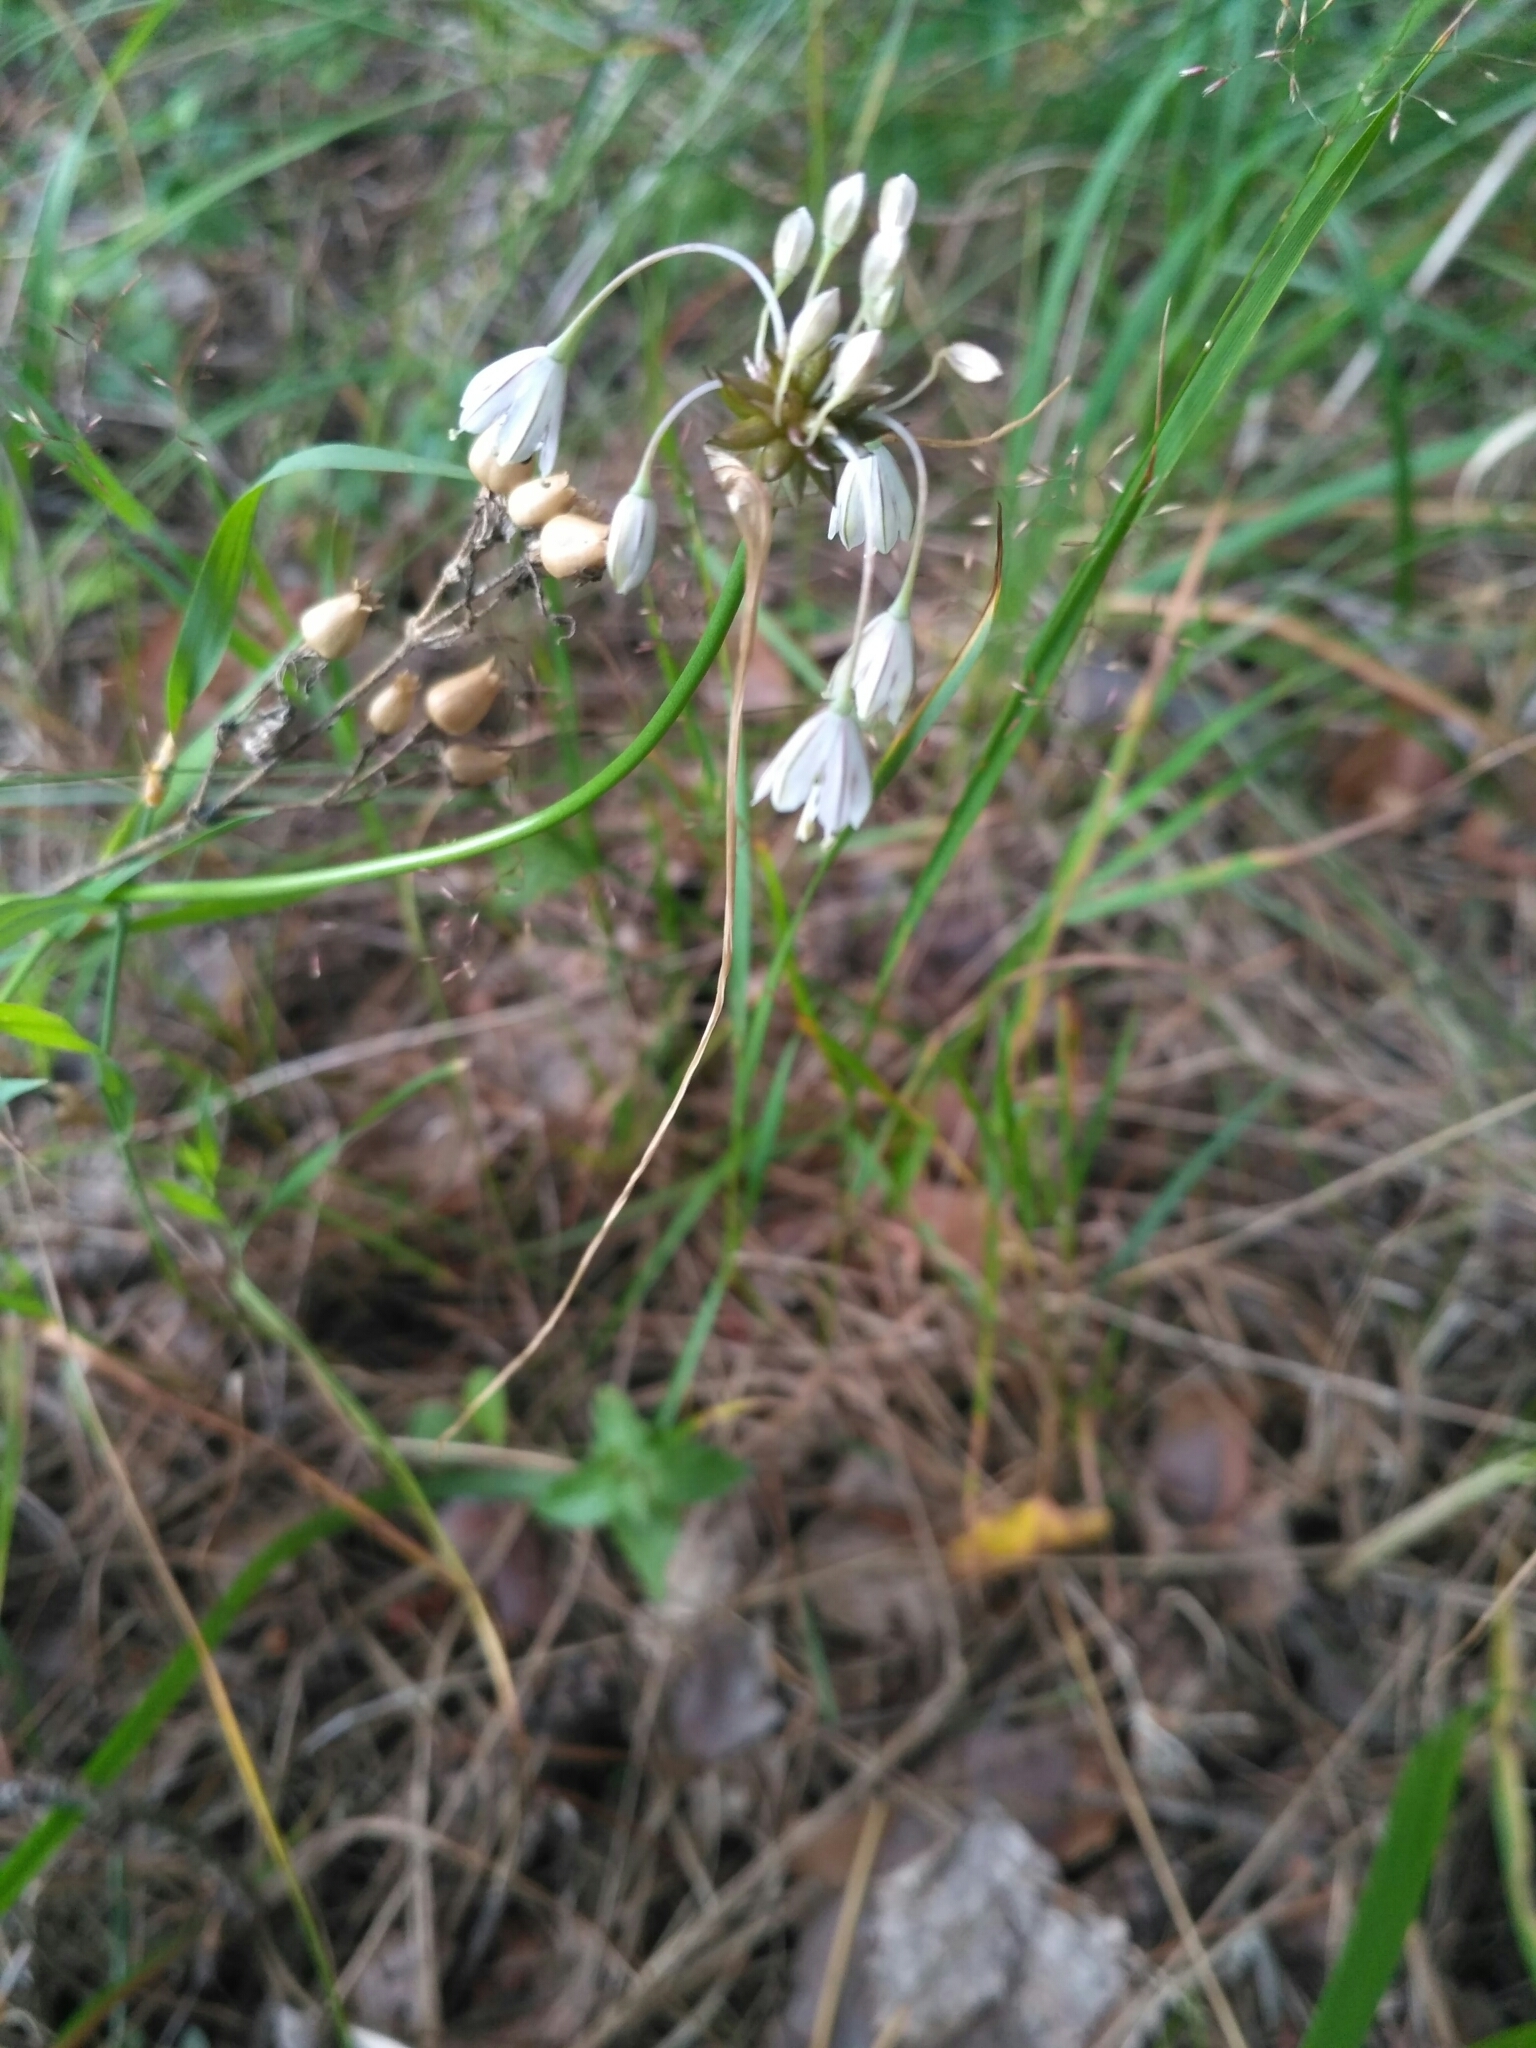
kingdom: Plantae
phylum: Tracheophyta
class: Liliopsida
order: Asparagales
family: Amaryllidaceae
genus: Allium
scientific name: Allium oleraceum
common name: Field garlic
